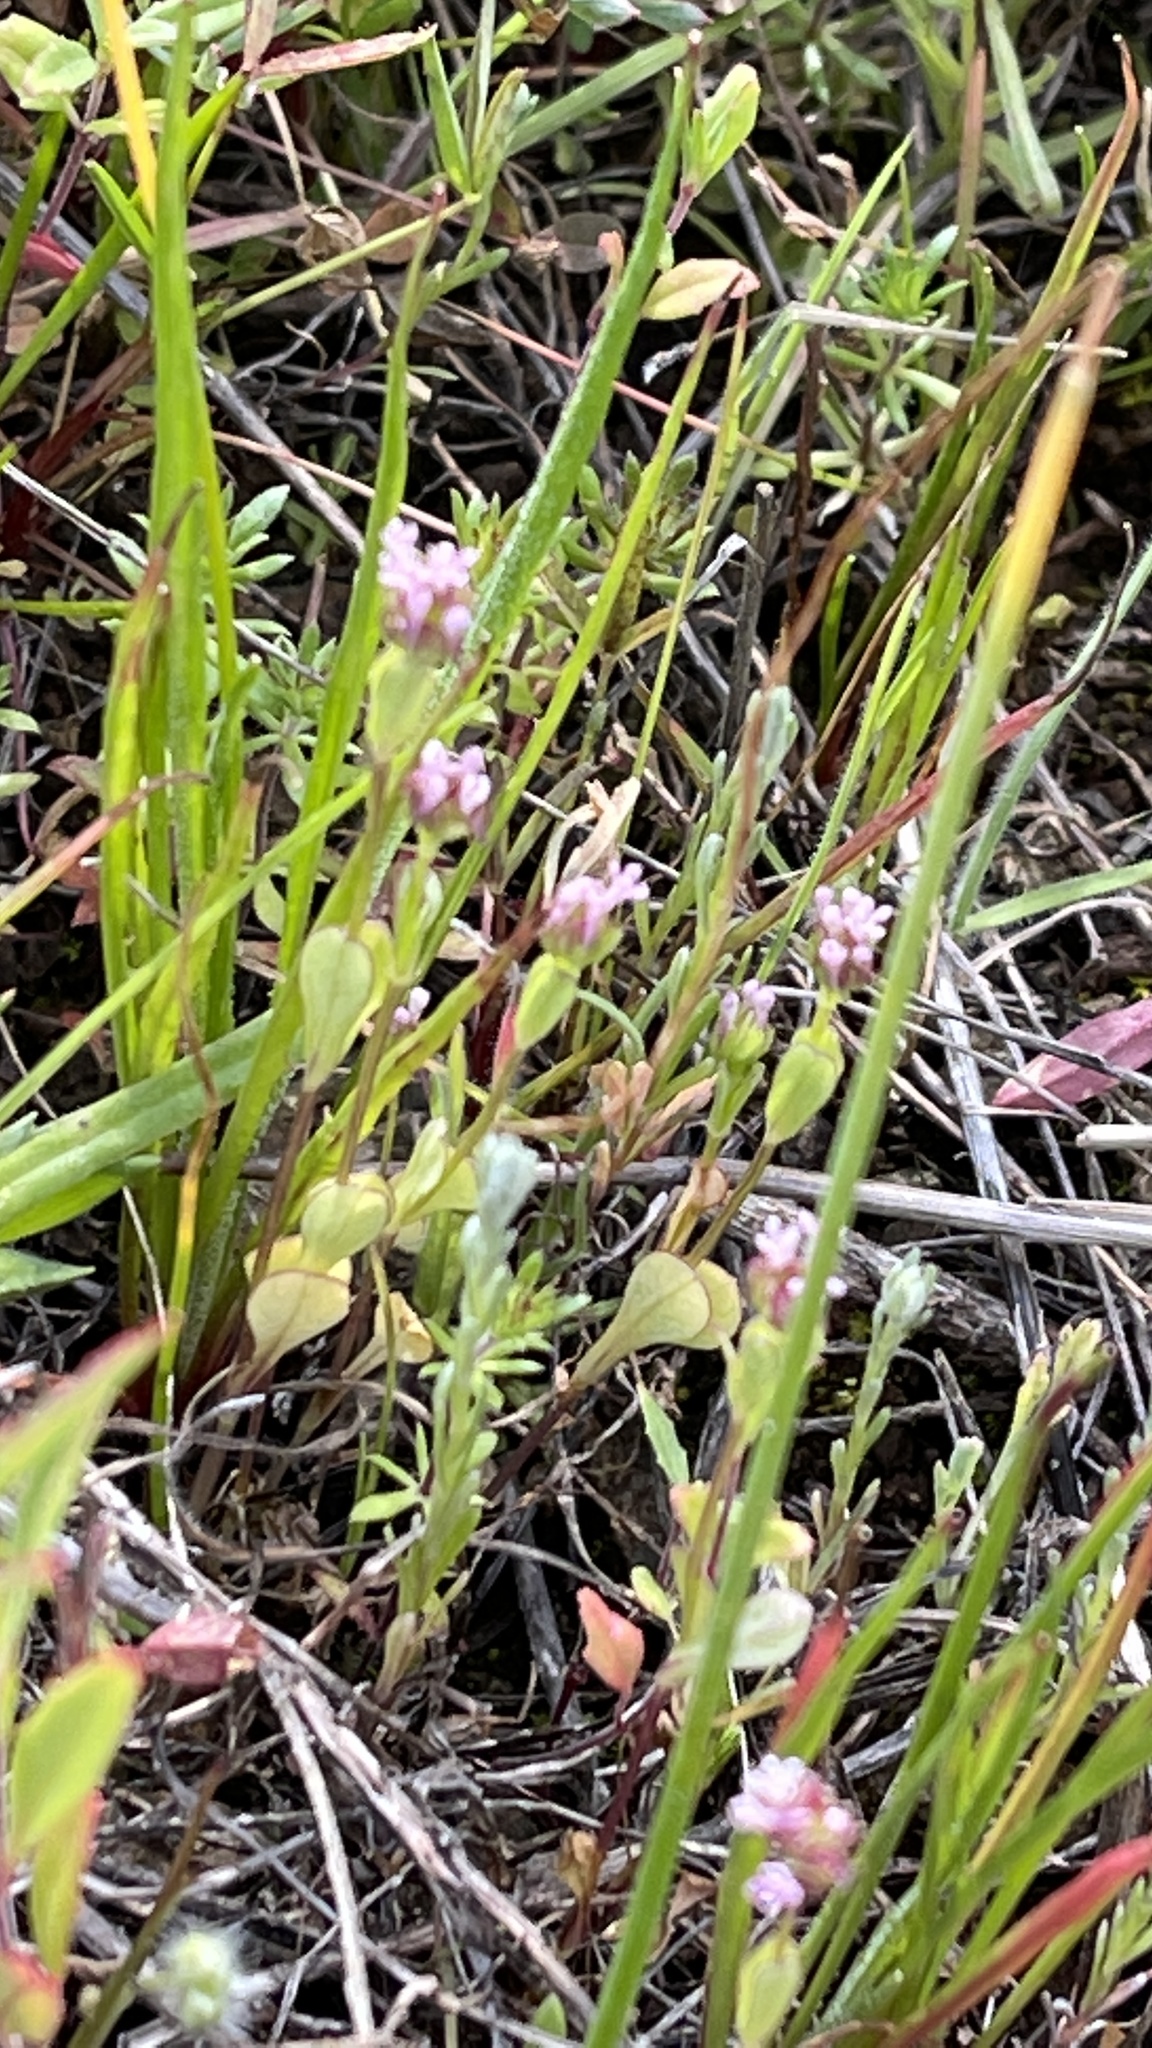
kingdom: Plantae
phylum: Tracheophyta
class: Magnoliopsida
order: Dipsacales
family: Caprifoliaceae
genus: Plectritis
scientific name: Plectritis ciliosa
